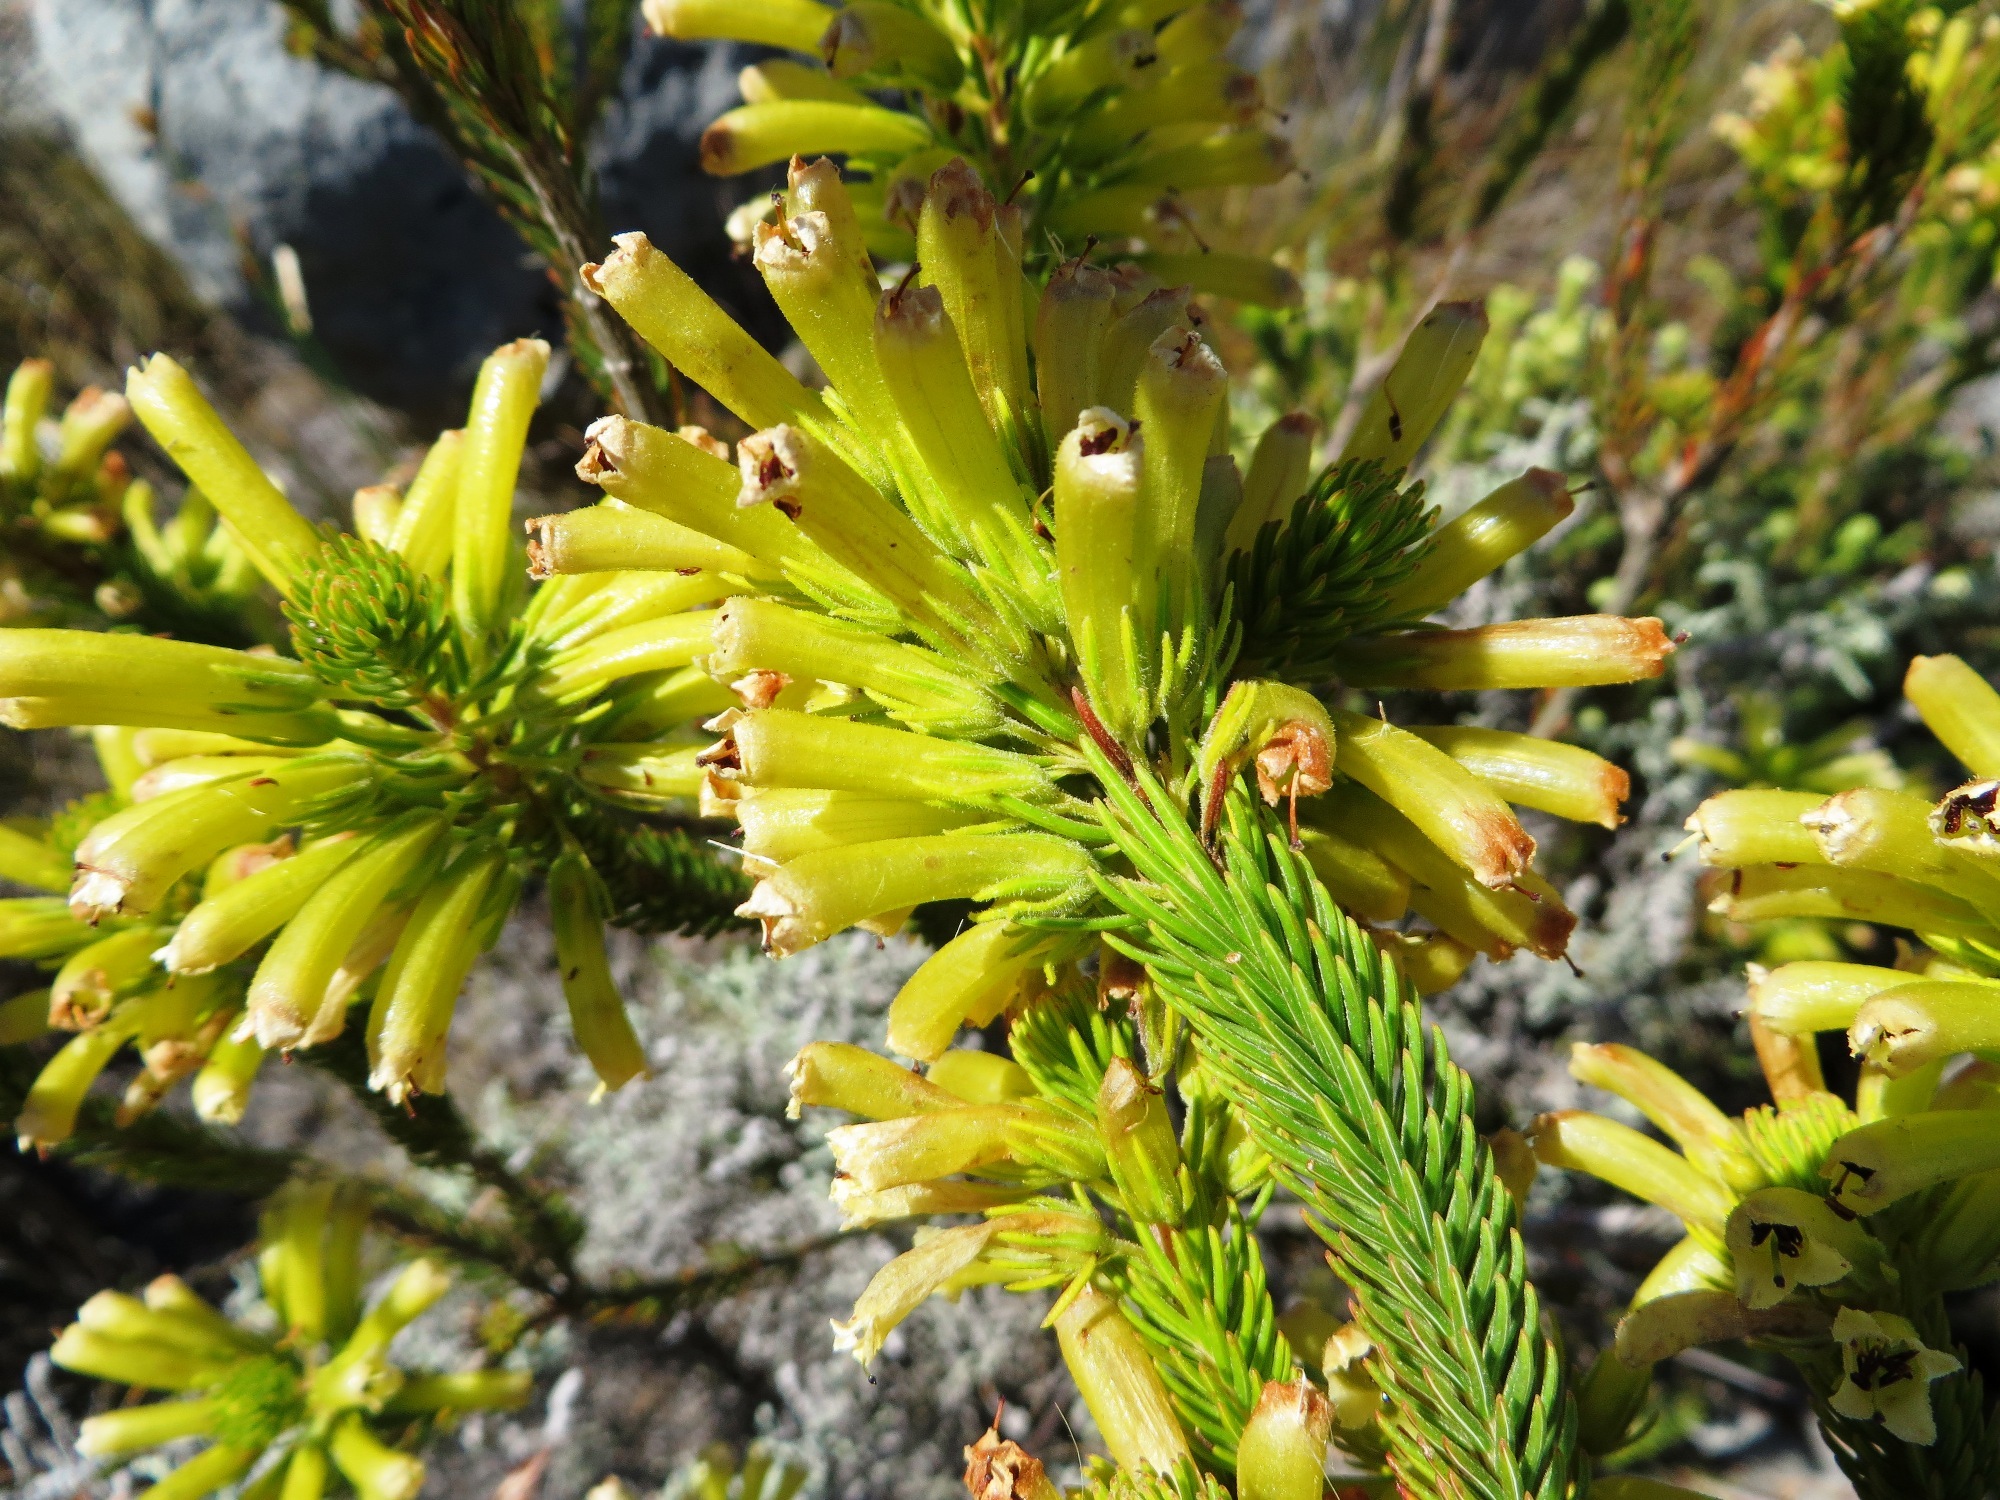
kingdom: Plantae
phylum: Tracheophyta
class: Magnoliopsida
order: Ericales
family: Ericaceae
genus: Erica
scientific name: Erica viscaria
